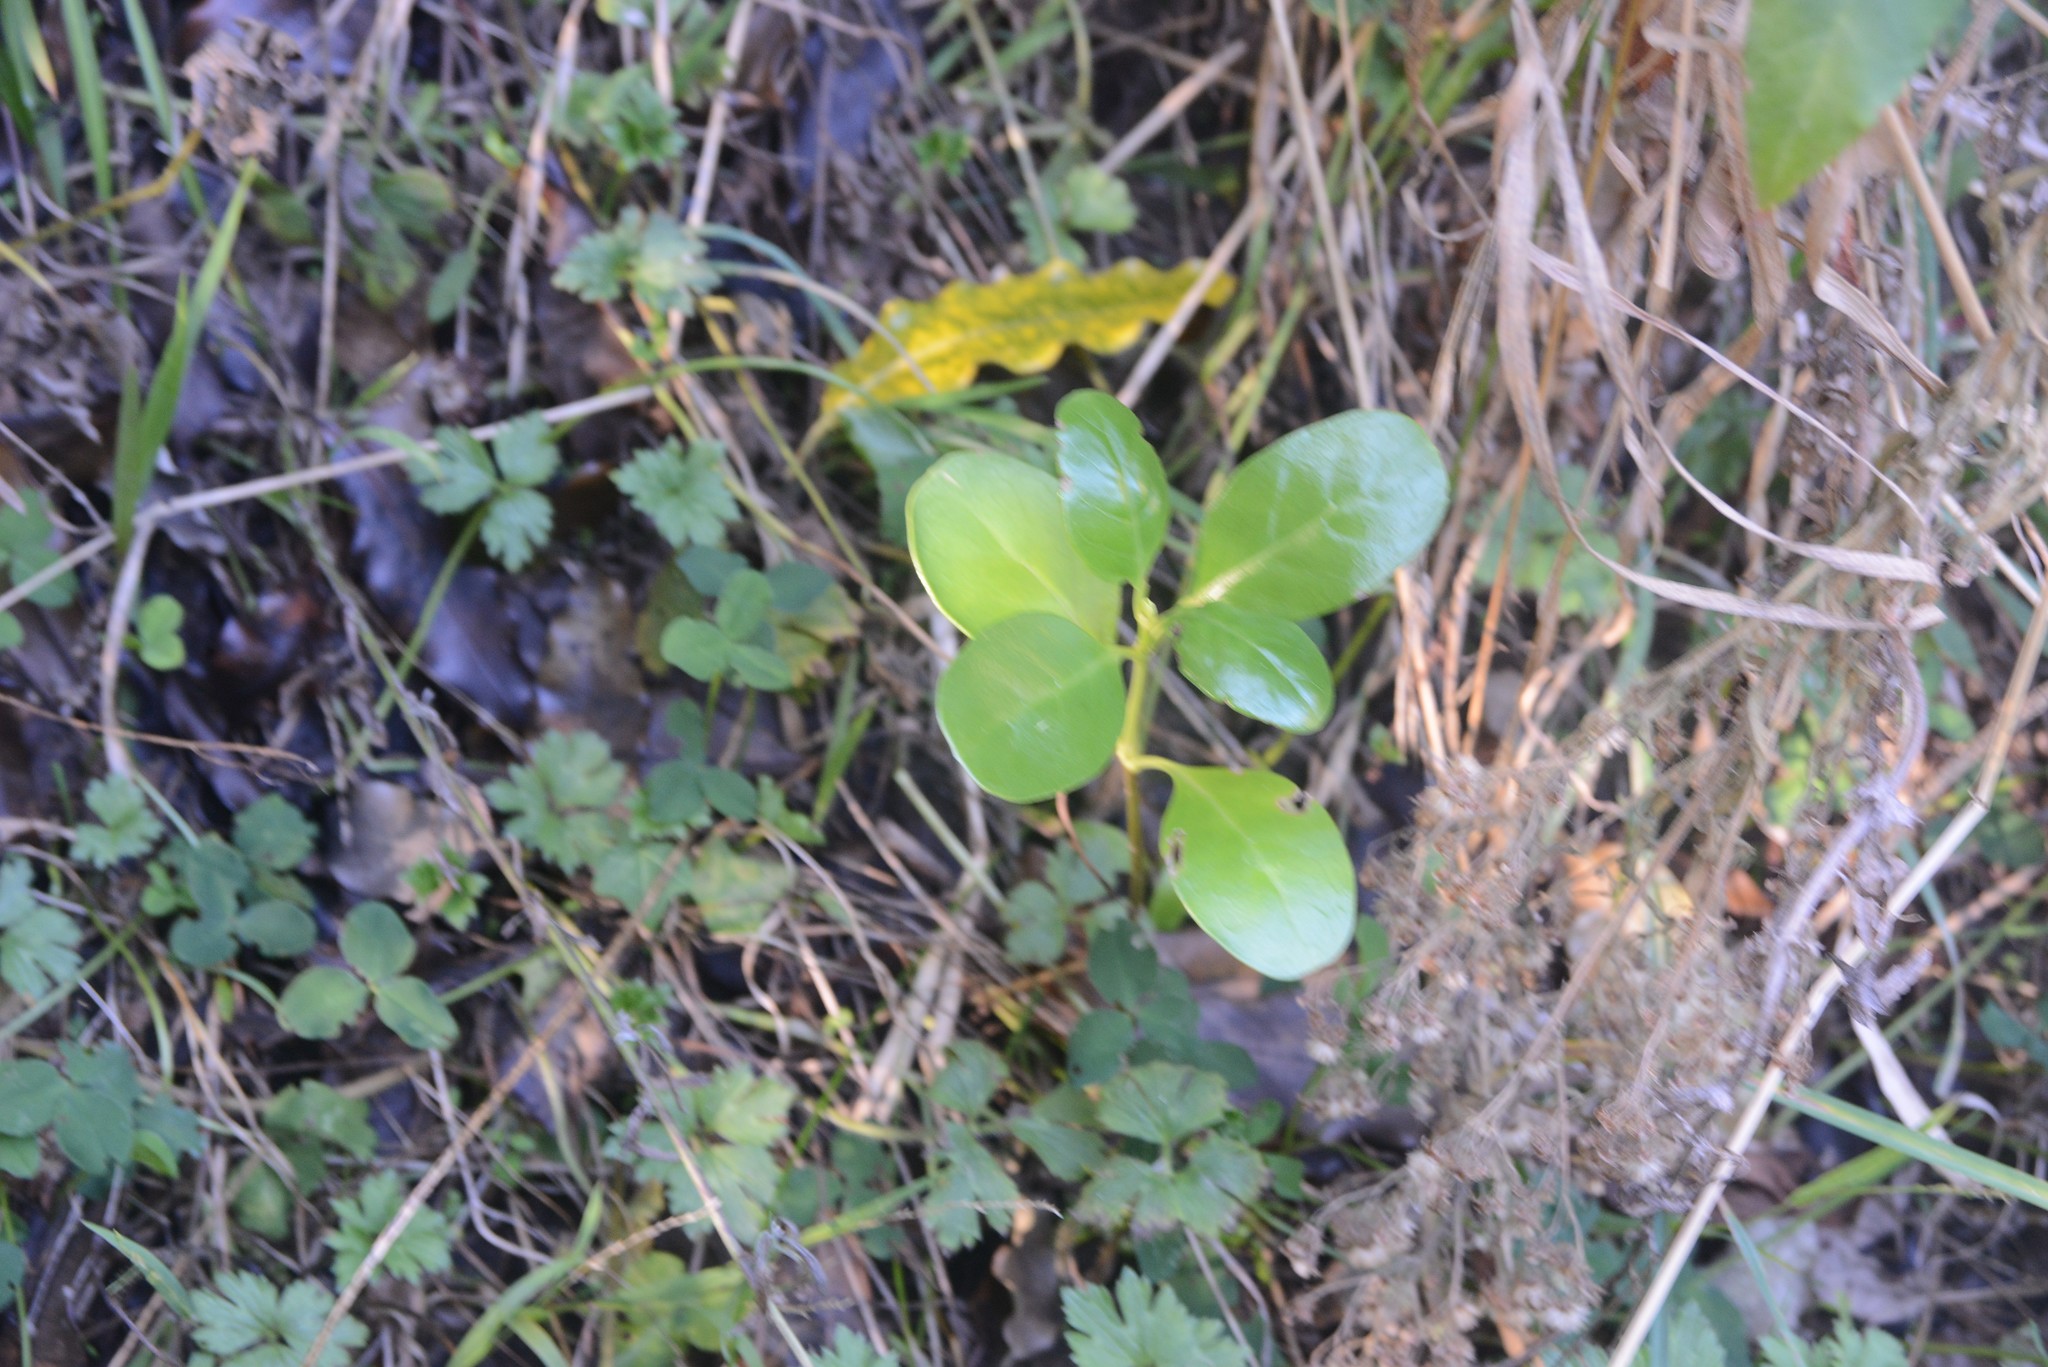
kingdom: Plantae
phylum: Tracheophyta
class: Magnoliopsida
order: Gentianales
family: Rubiaceae
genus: Coprosma
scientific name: Coprosma repens
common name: Tree bedstraw
